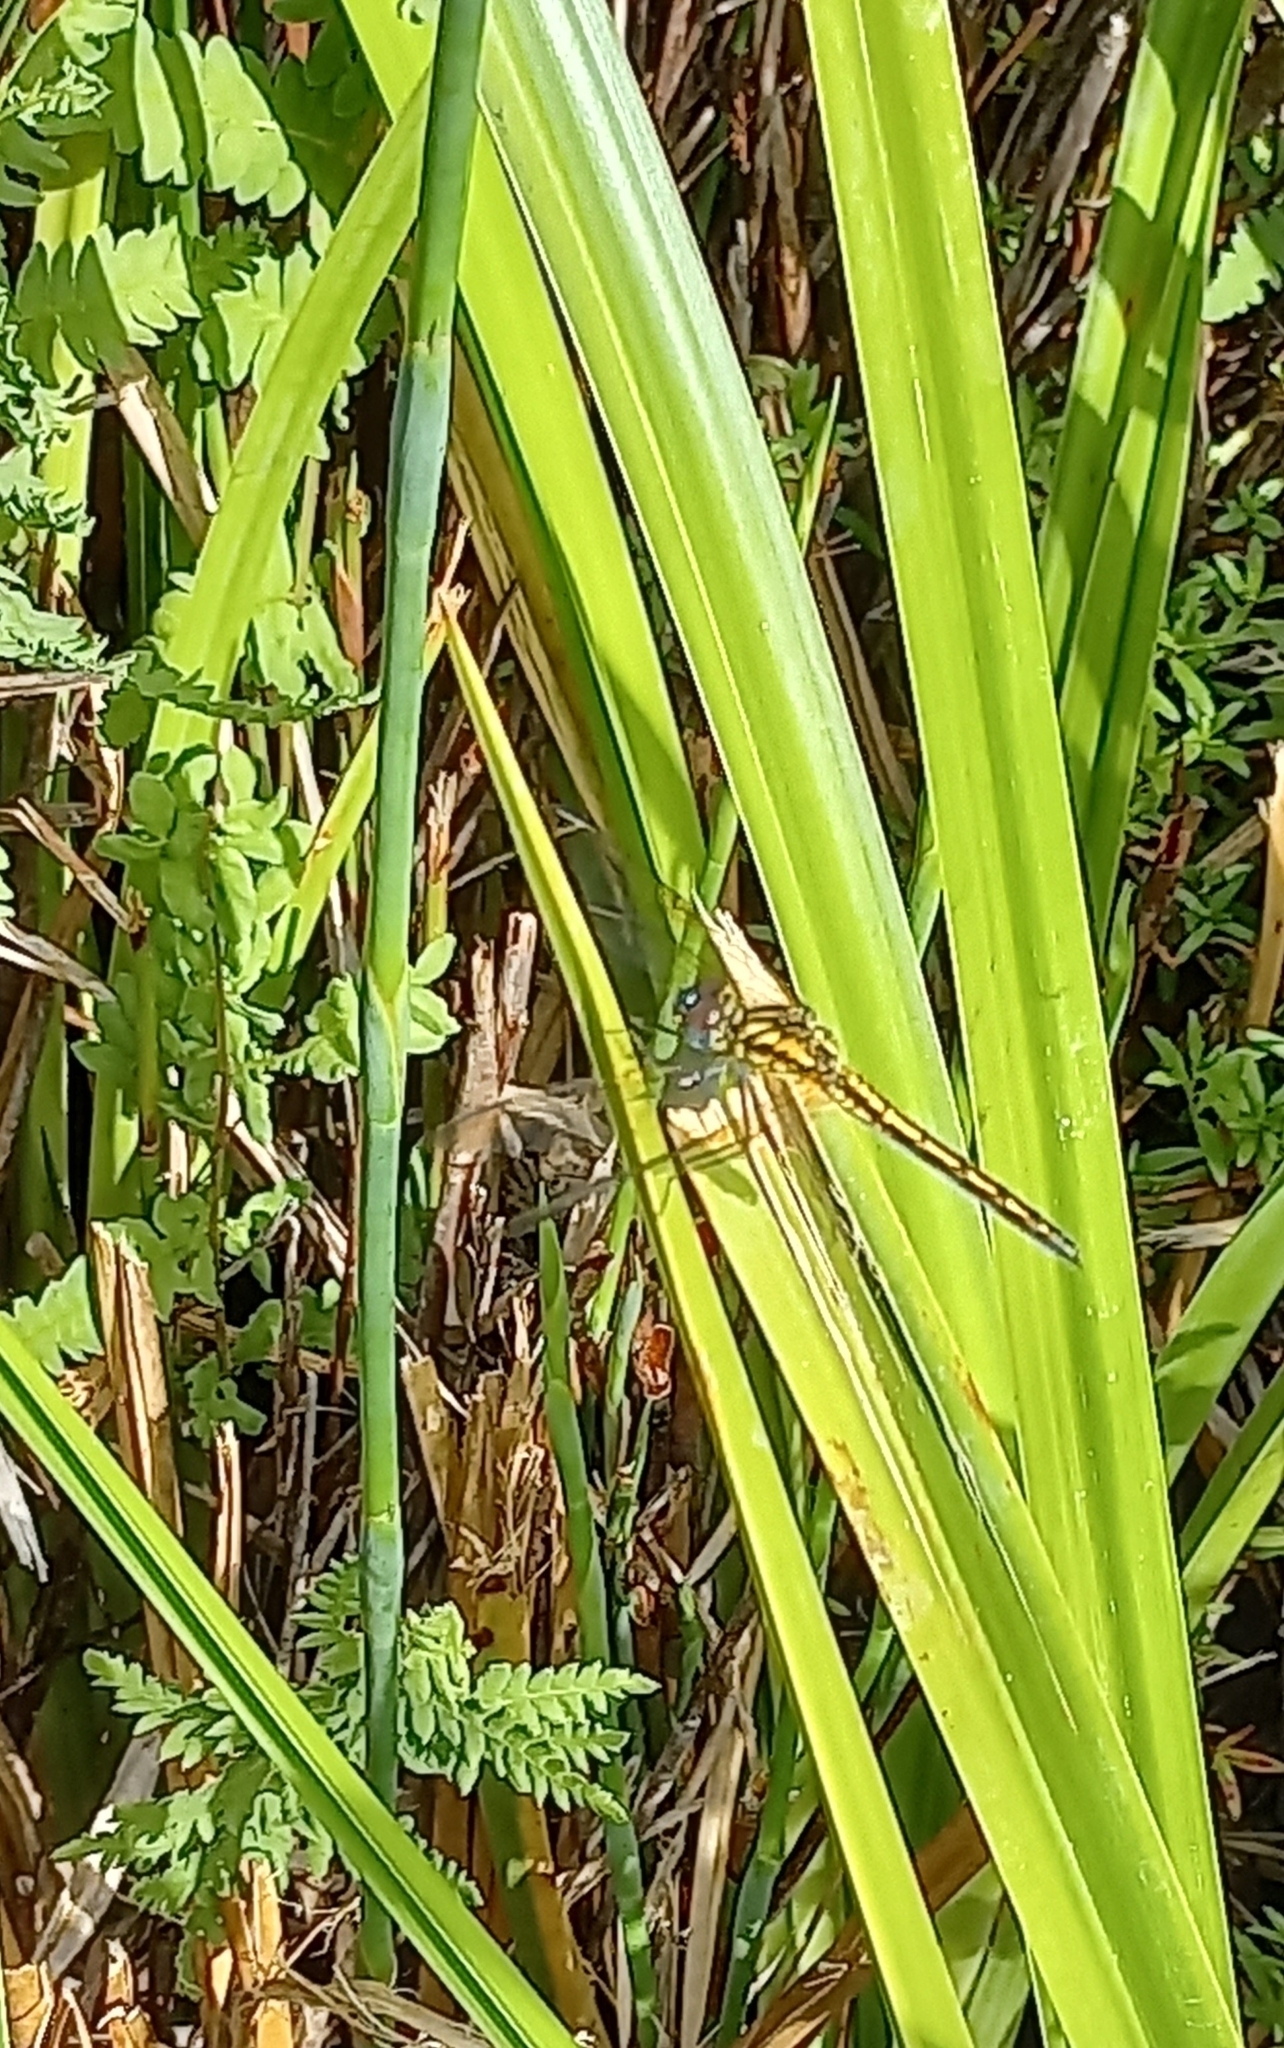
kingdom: Animalia
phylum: Arthropoda
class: Insecta
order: Odonata
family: Libellulidae
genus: Trithemis
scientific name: Trithemis furva
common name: Dark dropwing
